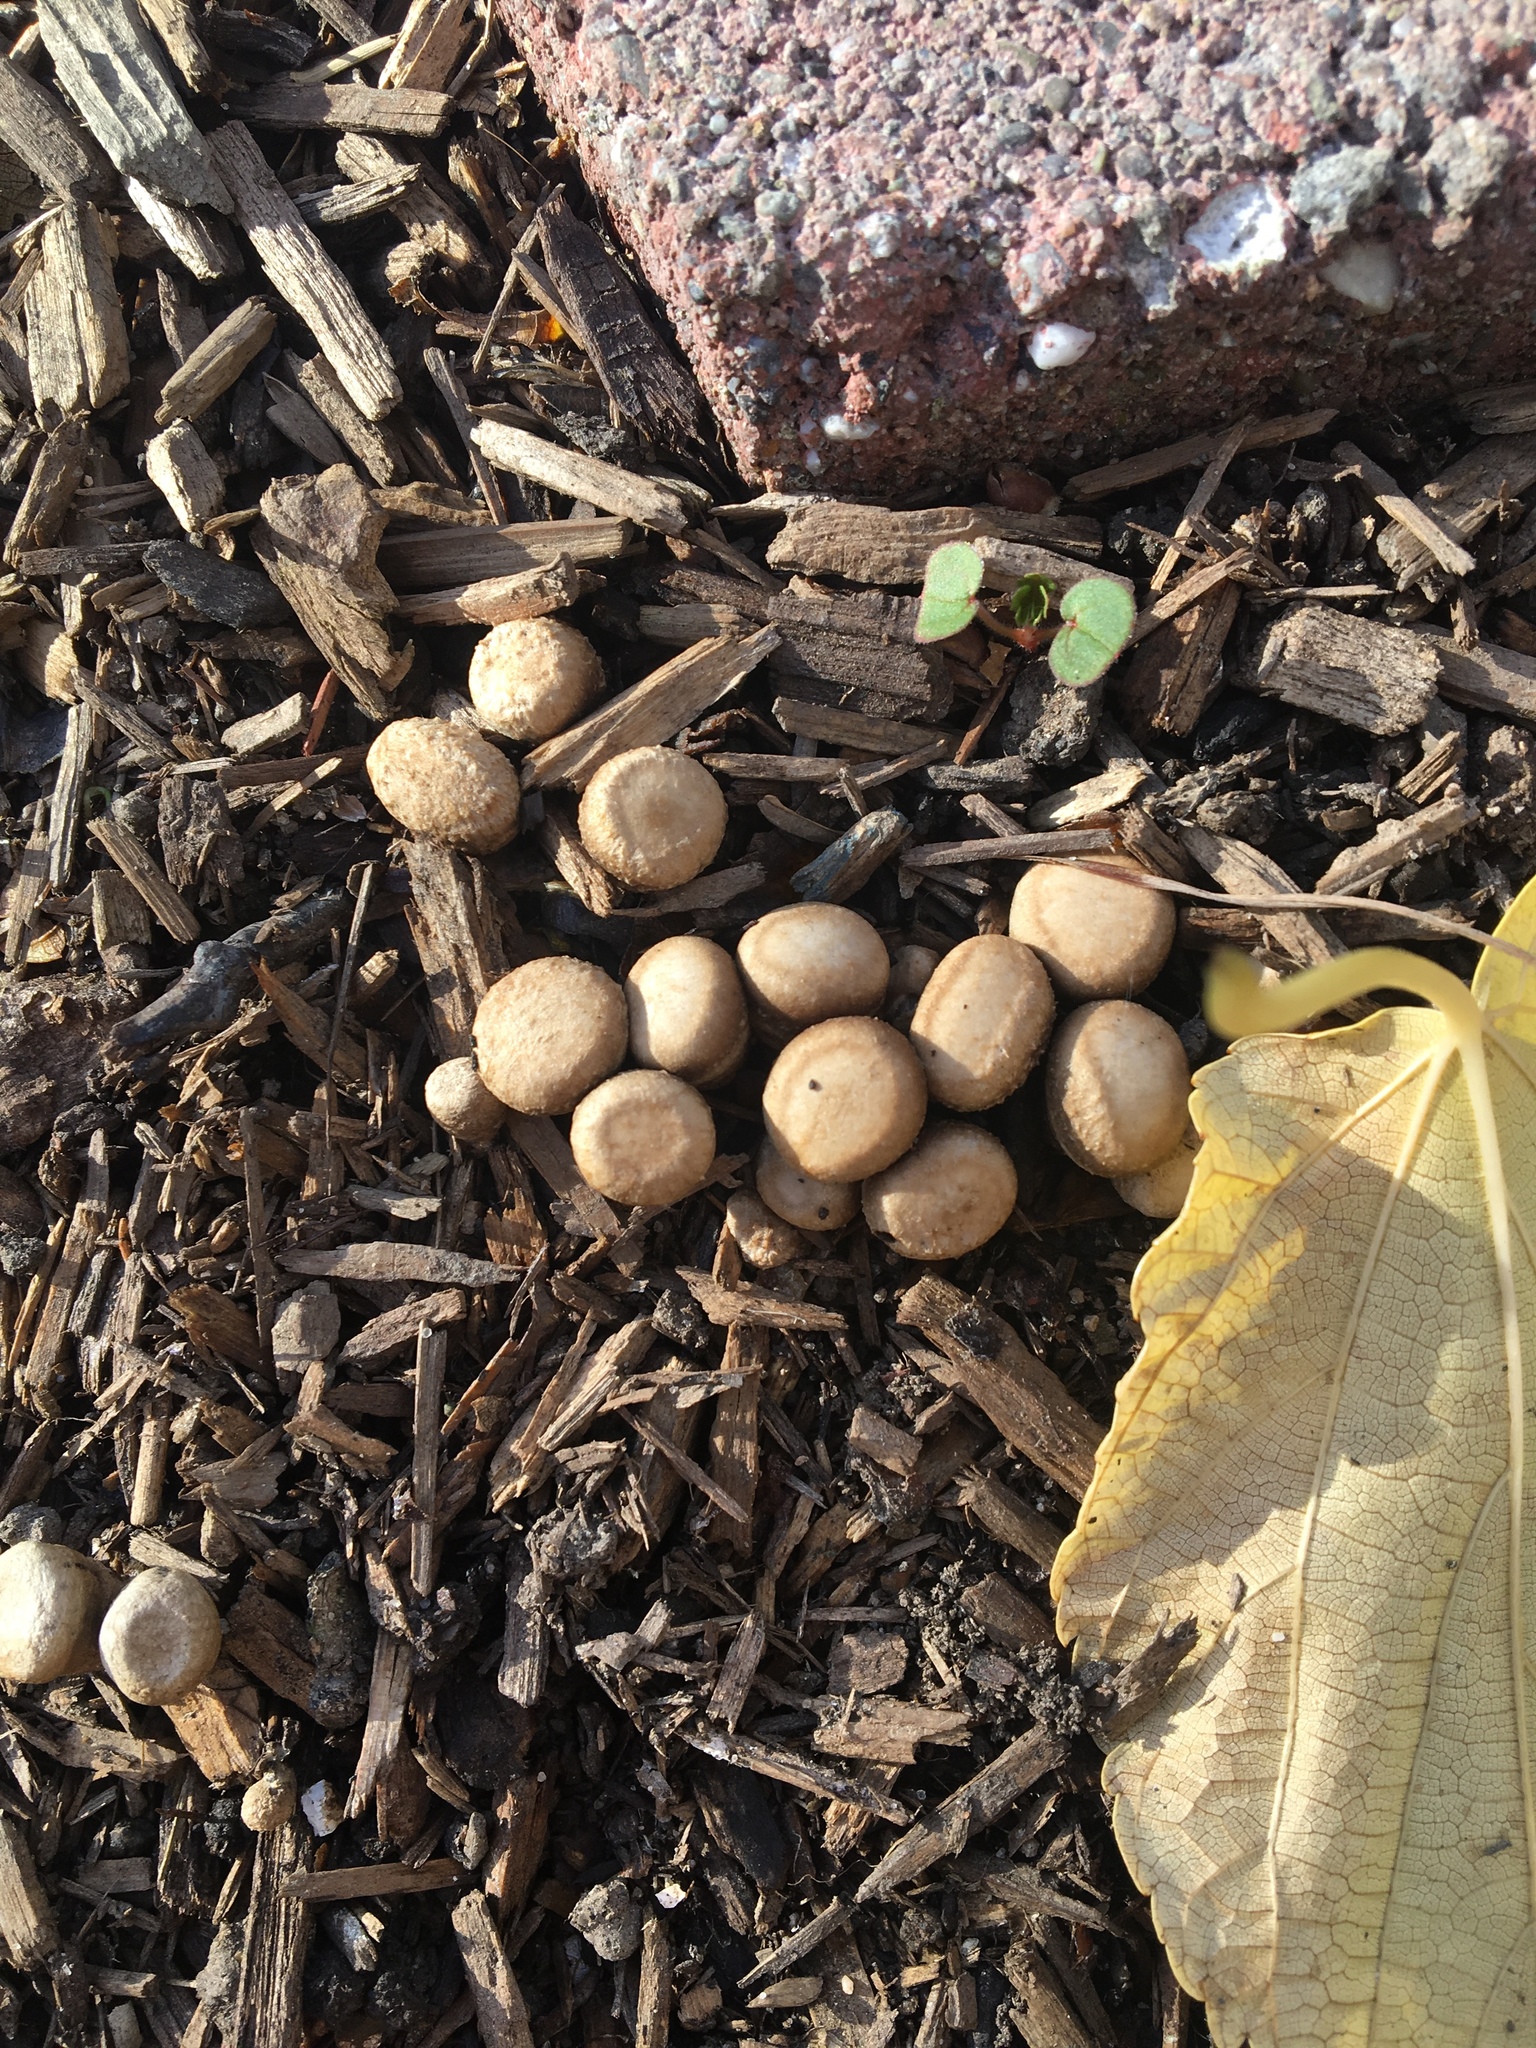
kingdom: Fungi
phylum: Basidiomycota
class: Agaricomycetes
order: Agaricales
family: Agaricaceae
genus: Cyathus
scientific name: Cyathus olla
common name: Field bird's nest
